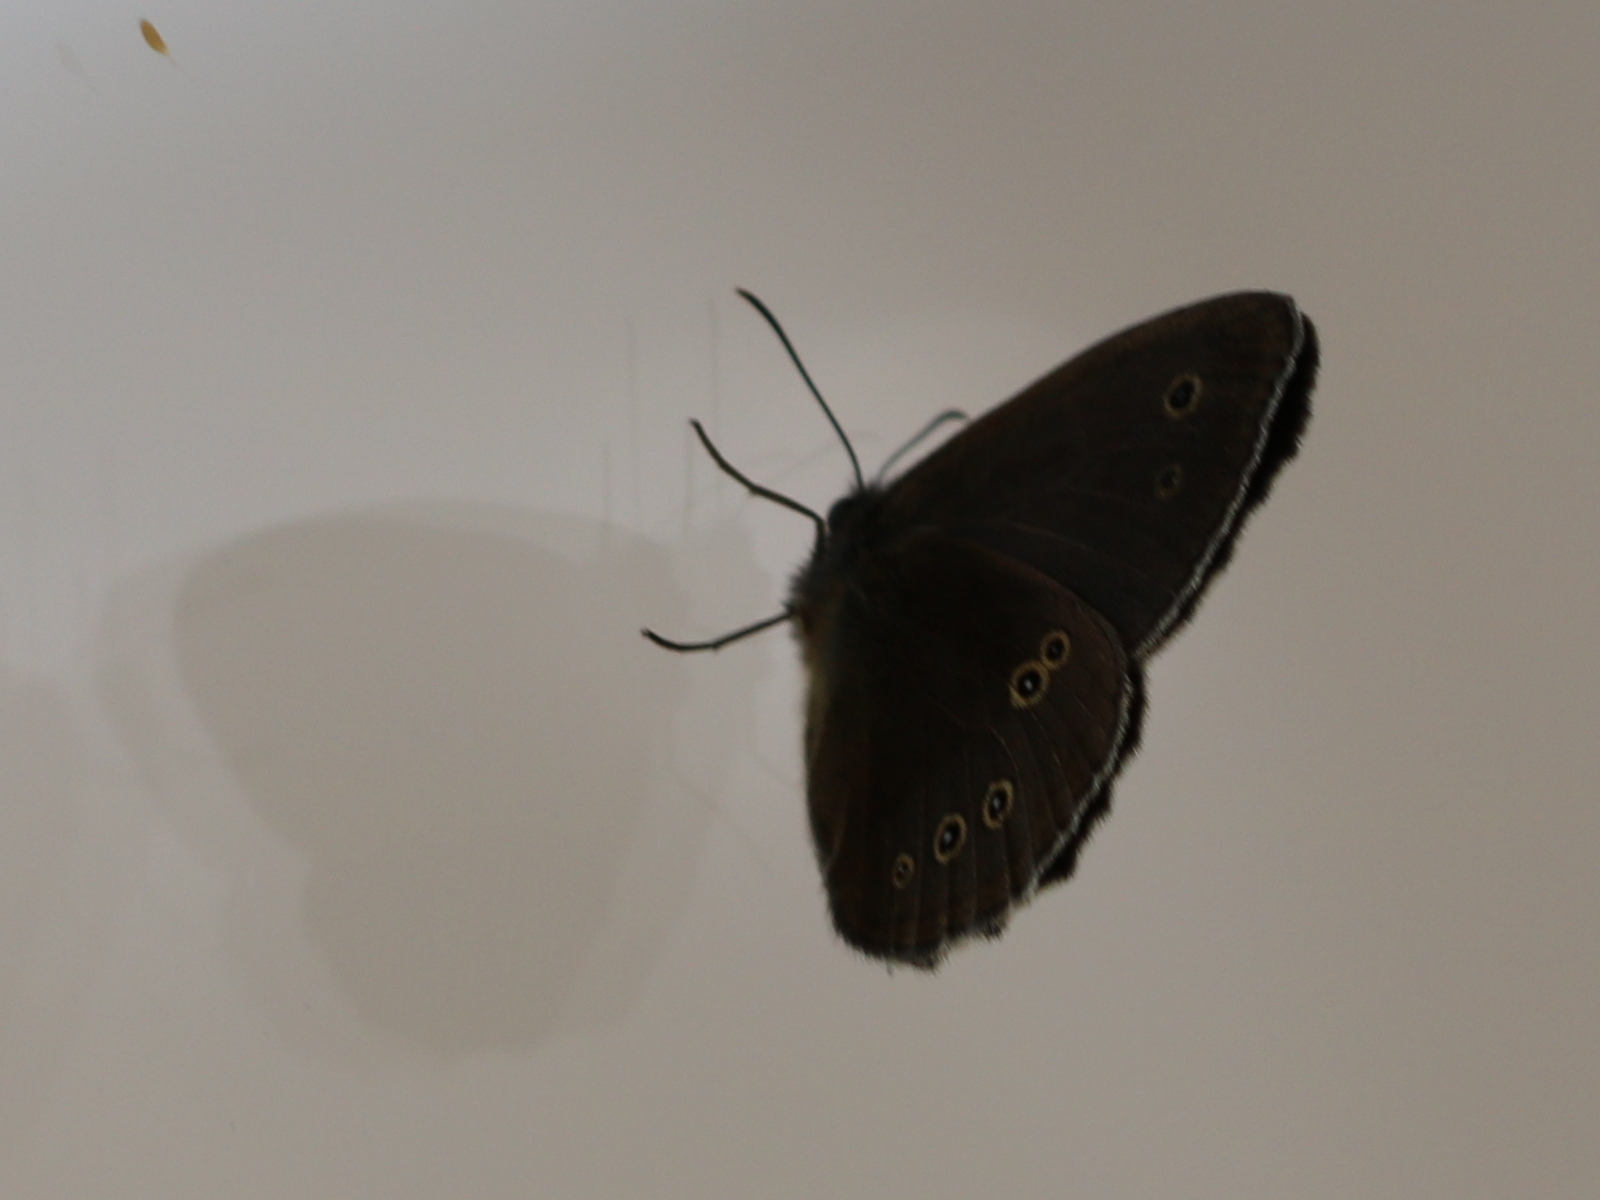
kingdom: Animalia
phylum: Arthropoda
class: Insecta
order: Lepidoptera
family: Nymphalidae
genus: Aphantopus
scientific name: Aphantopus hyperantus
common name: Ringlet
